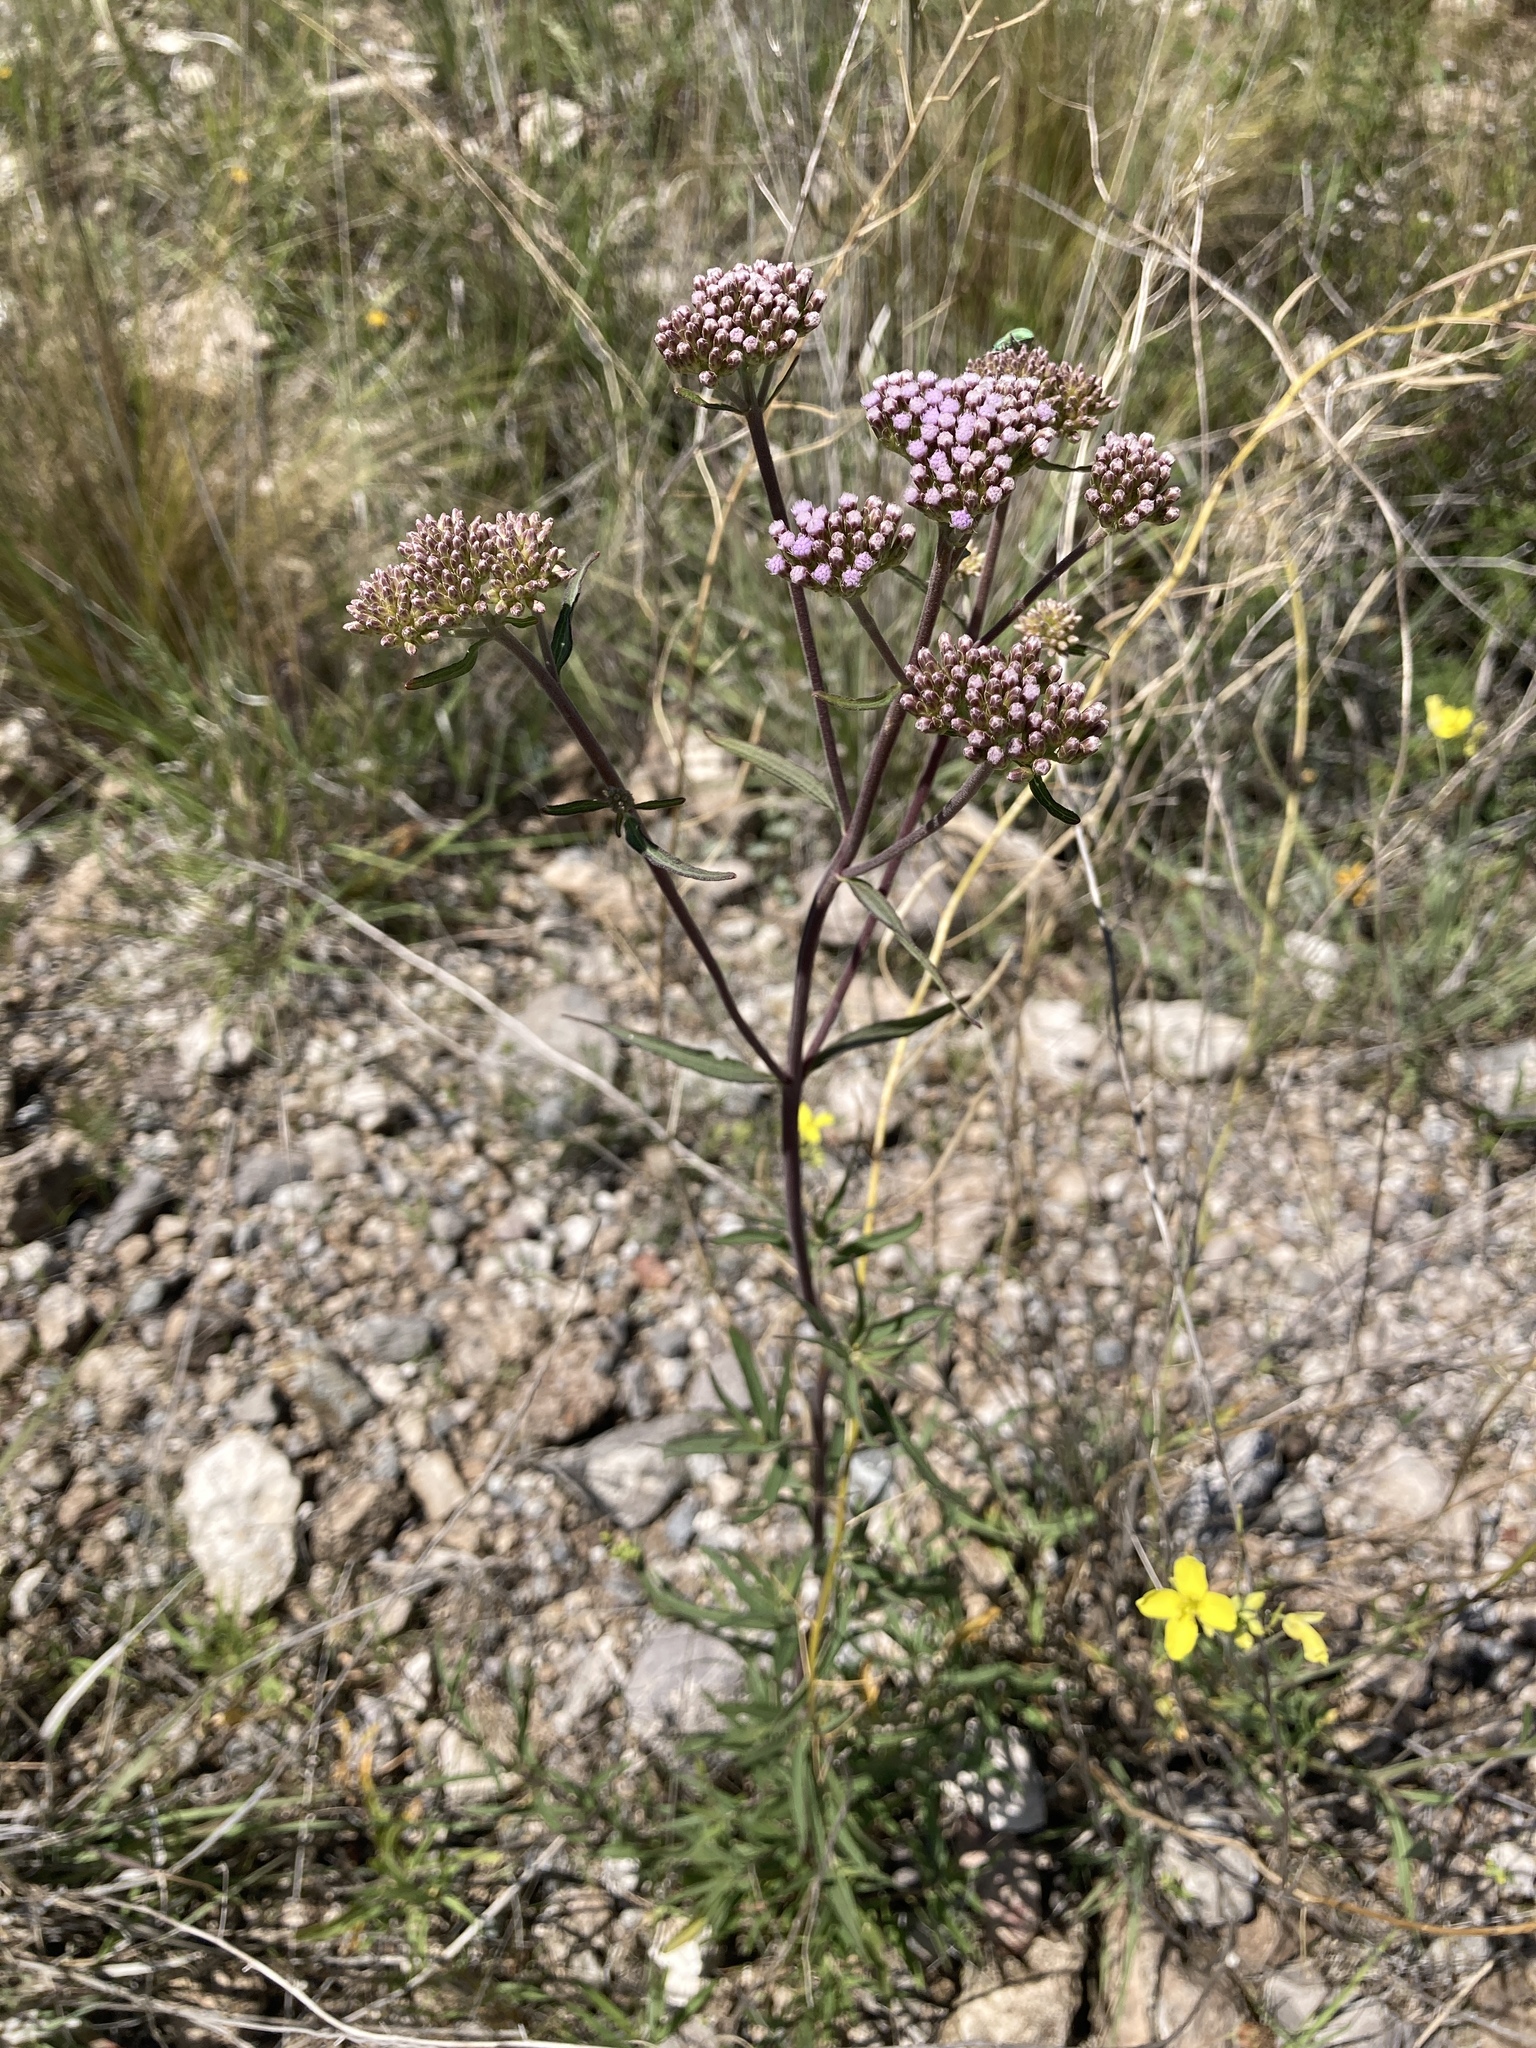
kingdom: Plantae
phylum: Tracheophyta
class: Magnoliopsida
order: Asterales
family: Asteraceae
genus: Gyptis
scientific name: Gyptis artemisifolia
